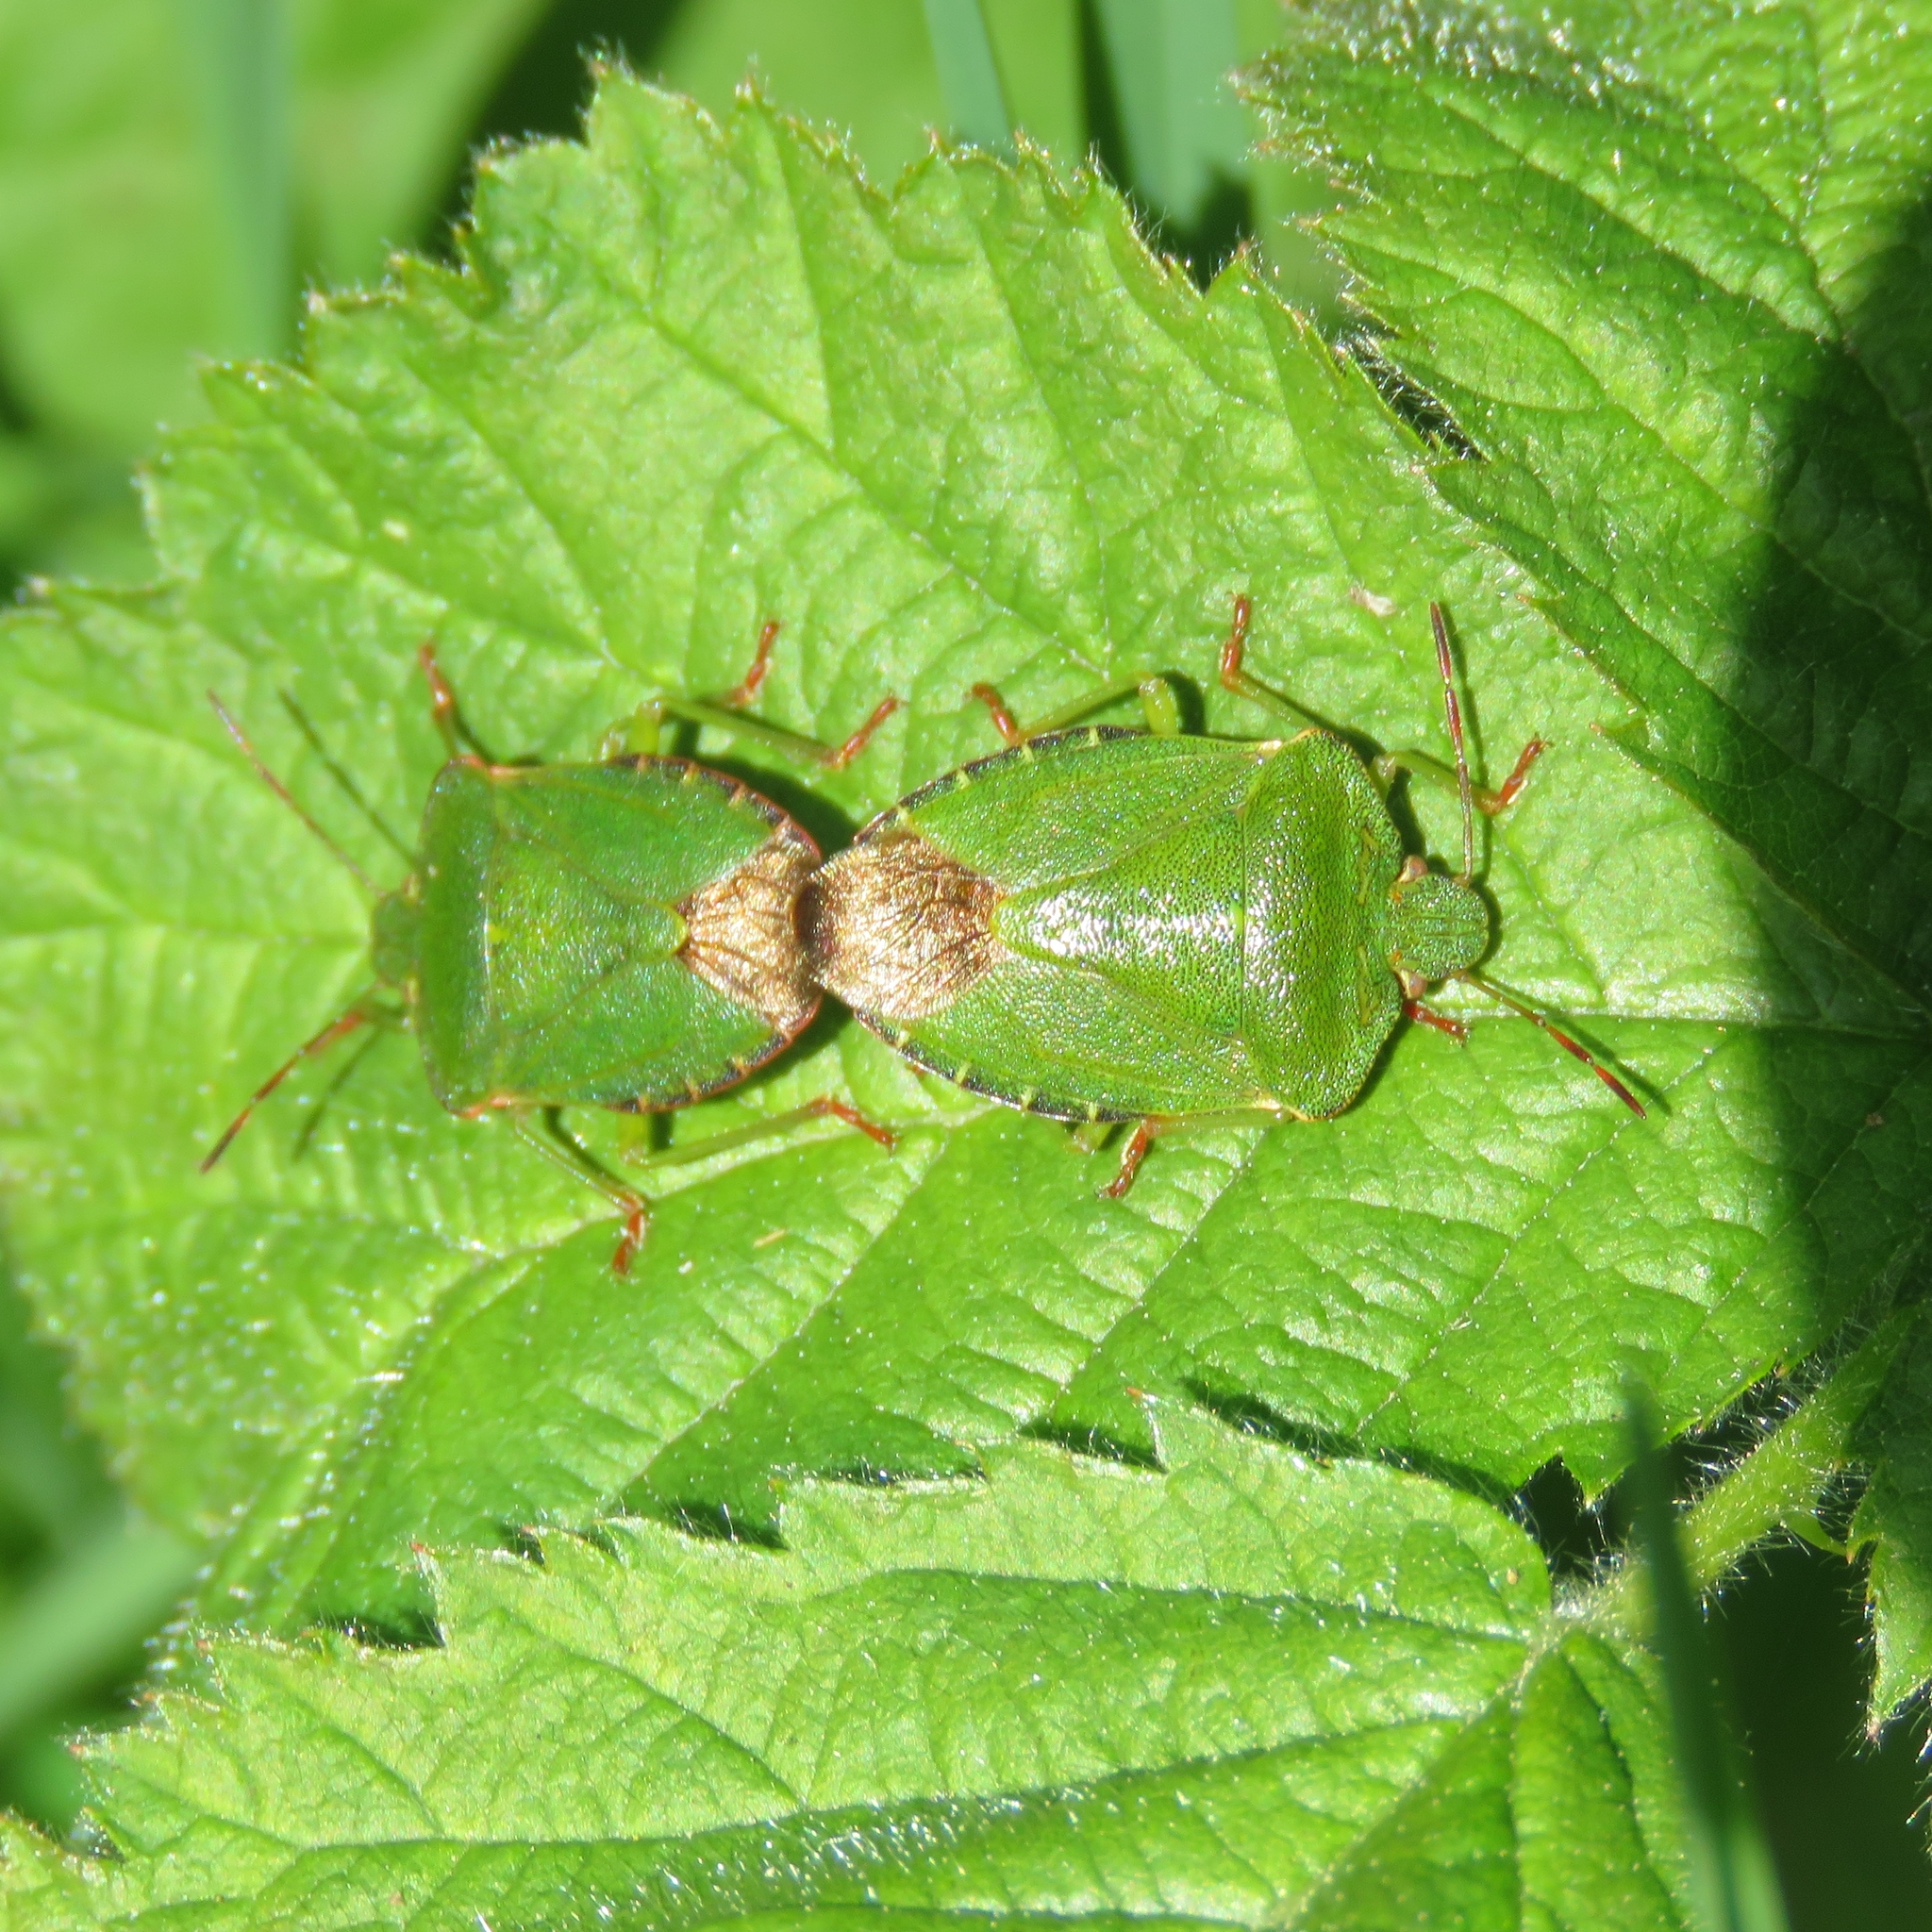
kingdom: Animalia
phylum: Arthropoda
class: Insecta
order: Hemiptera
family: Pentatomidae
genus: Palomena
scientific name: Palomena prasina
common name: Green shieldbug
